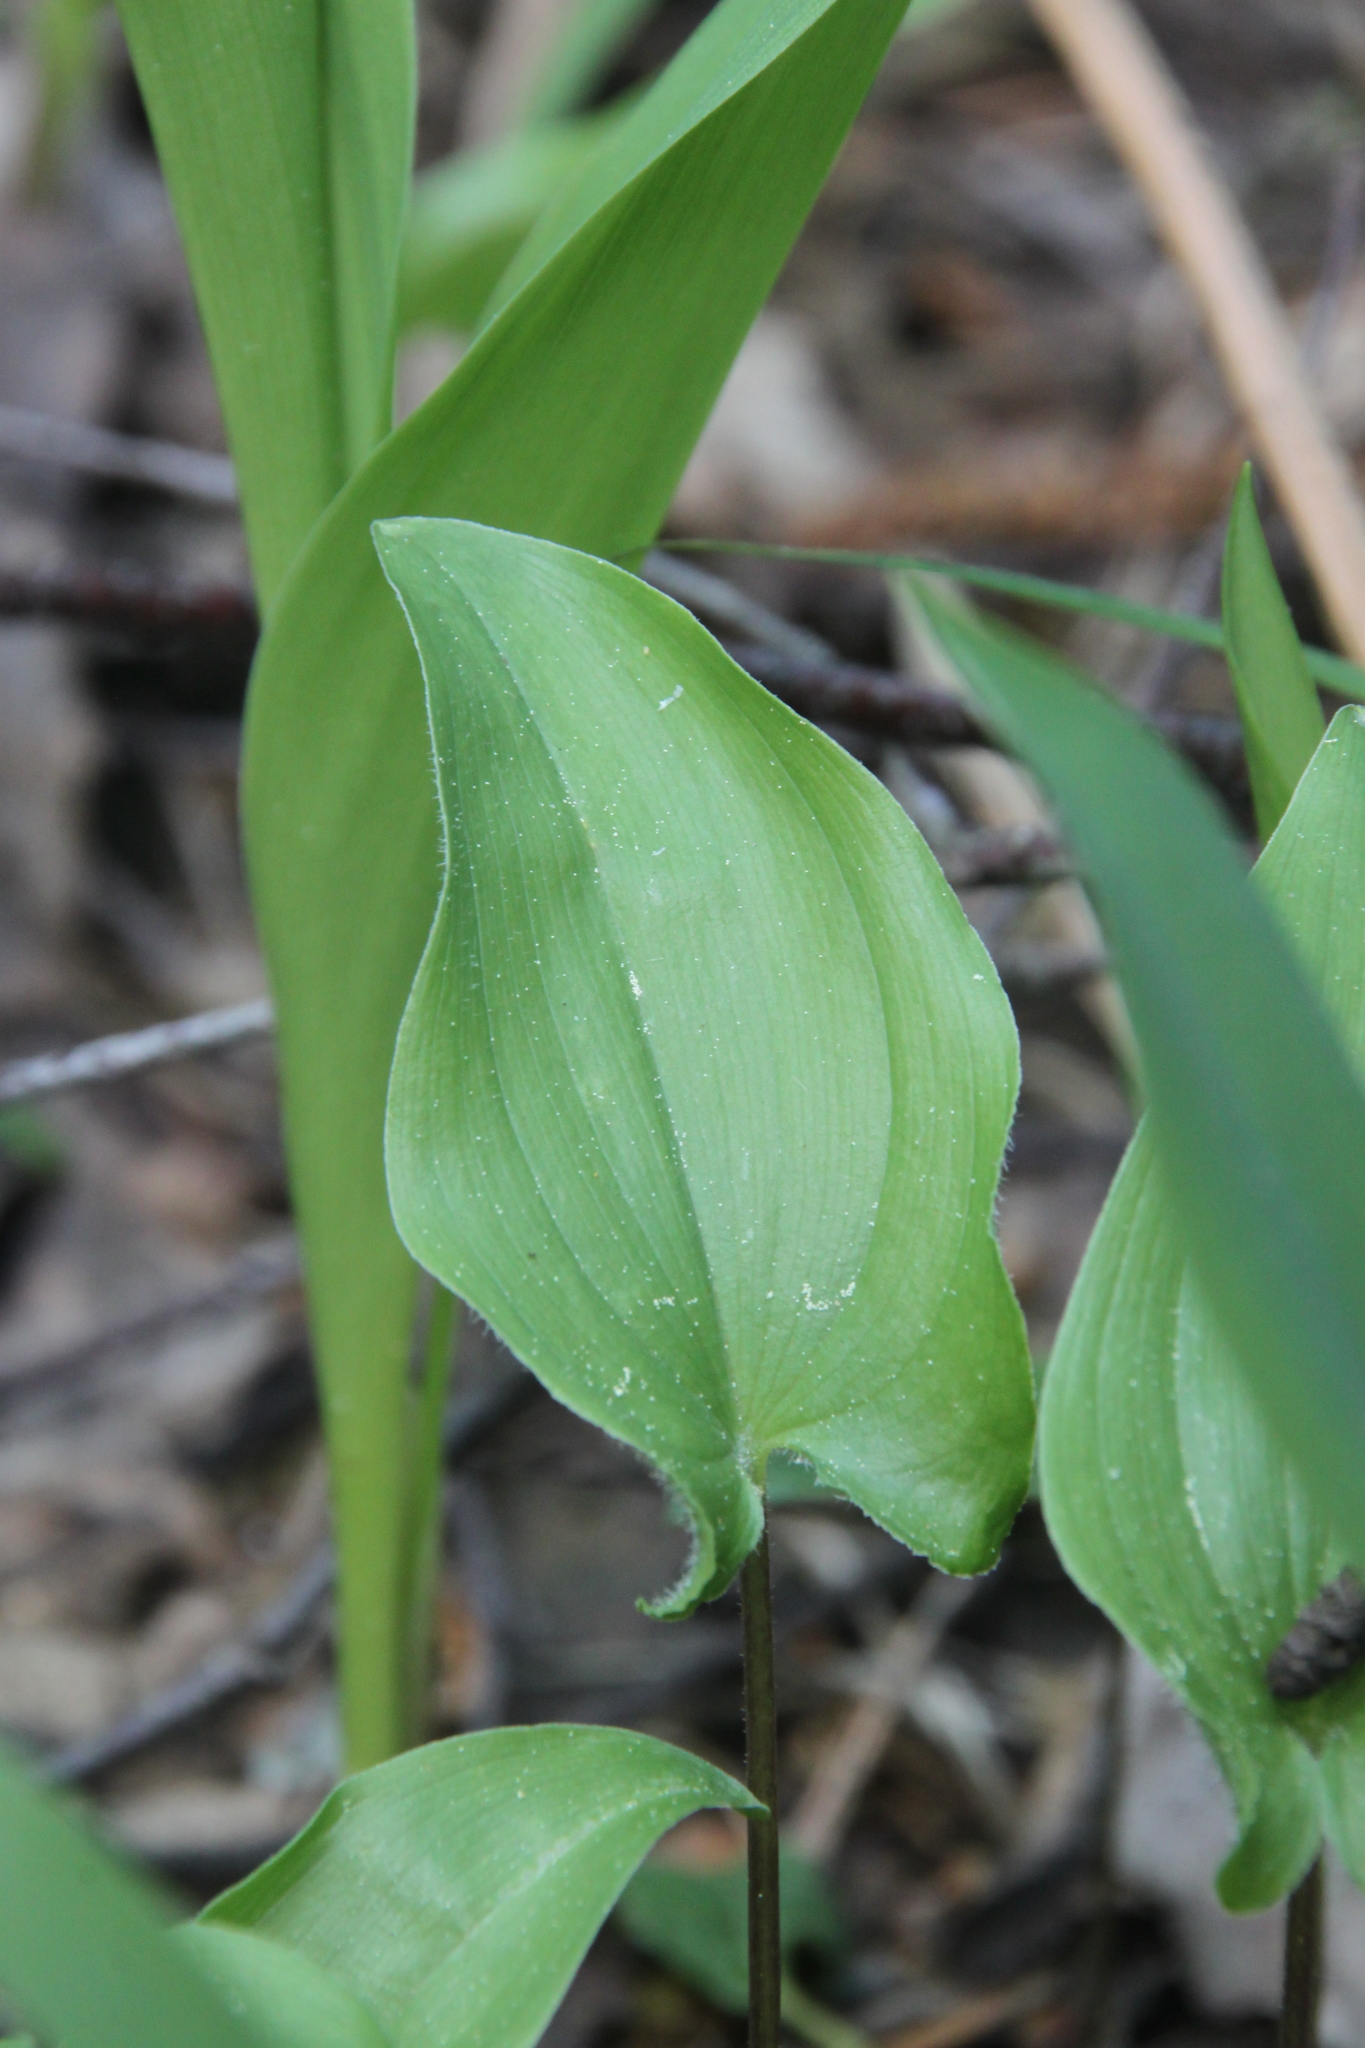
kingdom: Plantae
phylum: Tracheophyta
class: Liliopsida
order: Asparagales
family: Asparagaceae
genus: Maianthemum
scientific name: Maianthemum bifolium
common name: May lily
